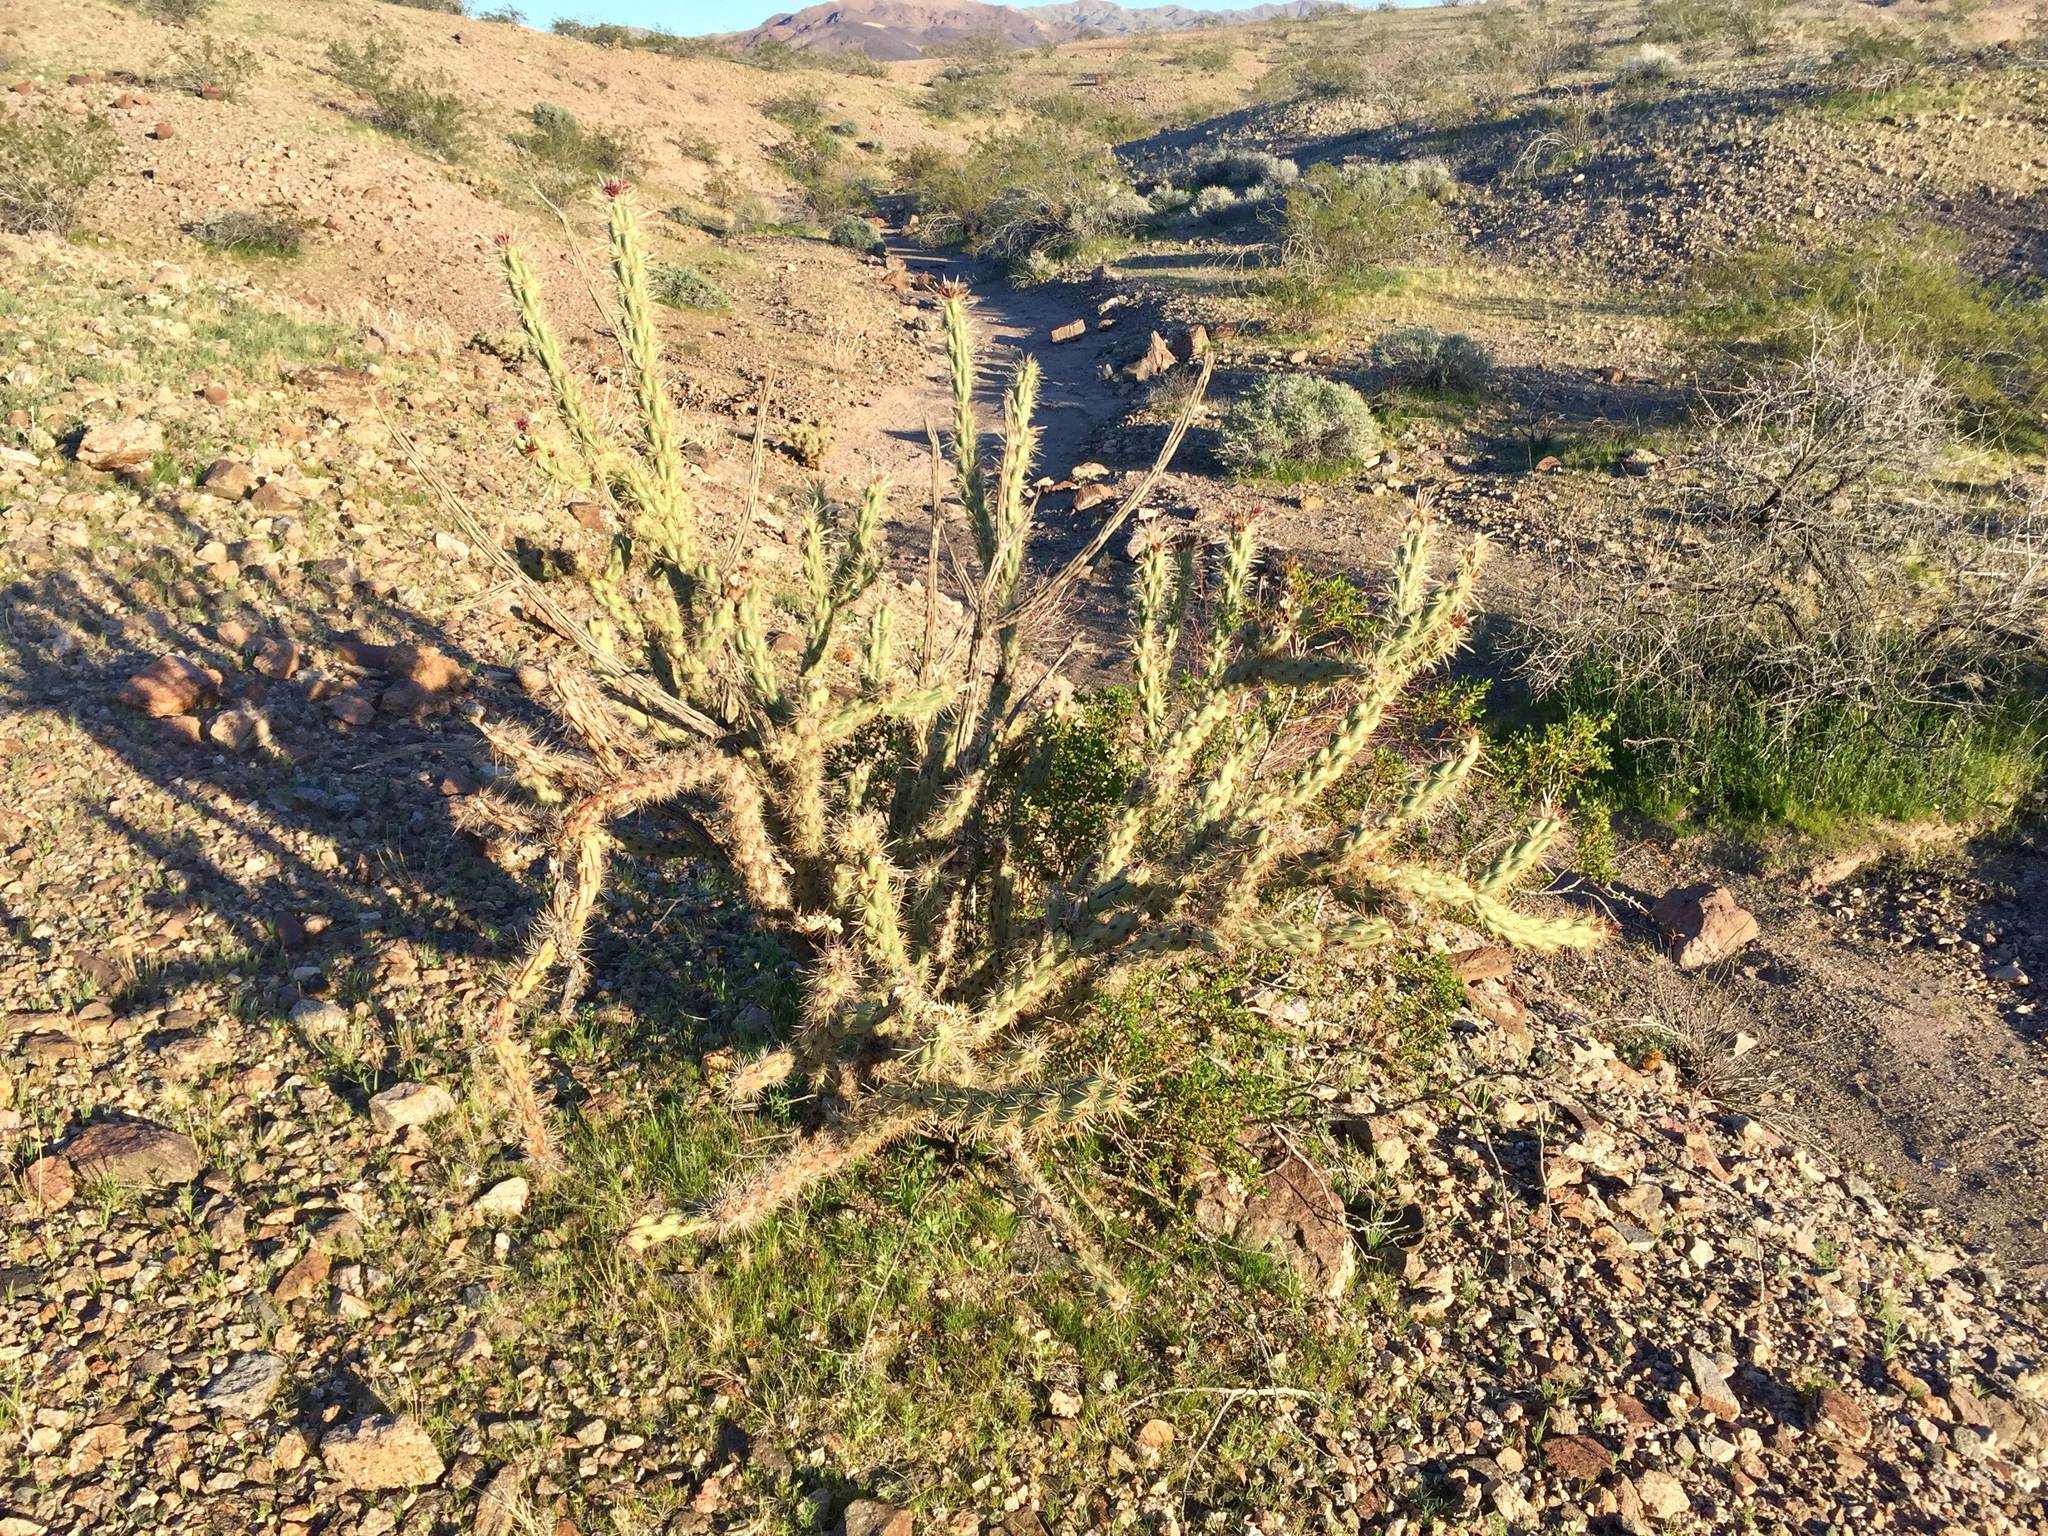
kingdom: Plantae
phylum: Tracheophyta
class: Magnoliopsida
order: Caryophyllales
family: Cactaceae
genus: Cylindropuntia
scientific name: Cylindropuntia acanthocarpa
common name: Buckhorn cholla
